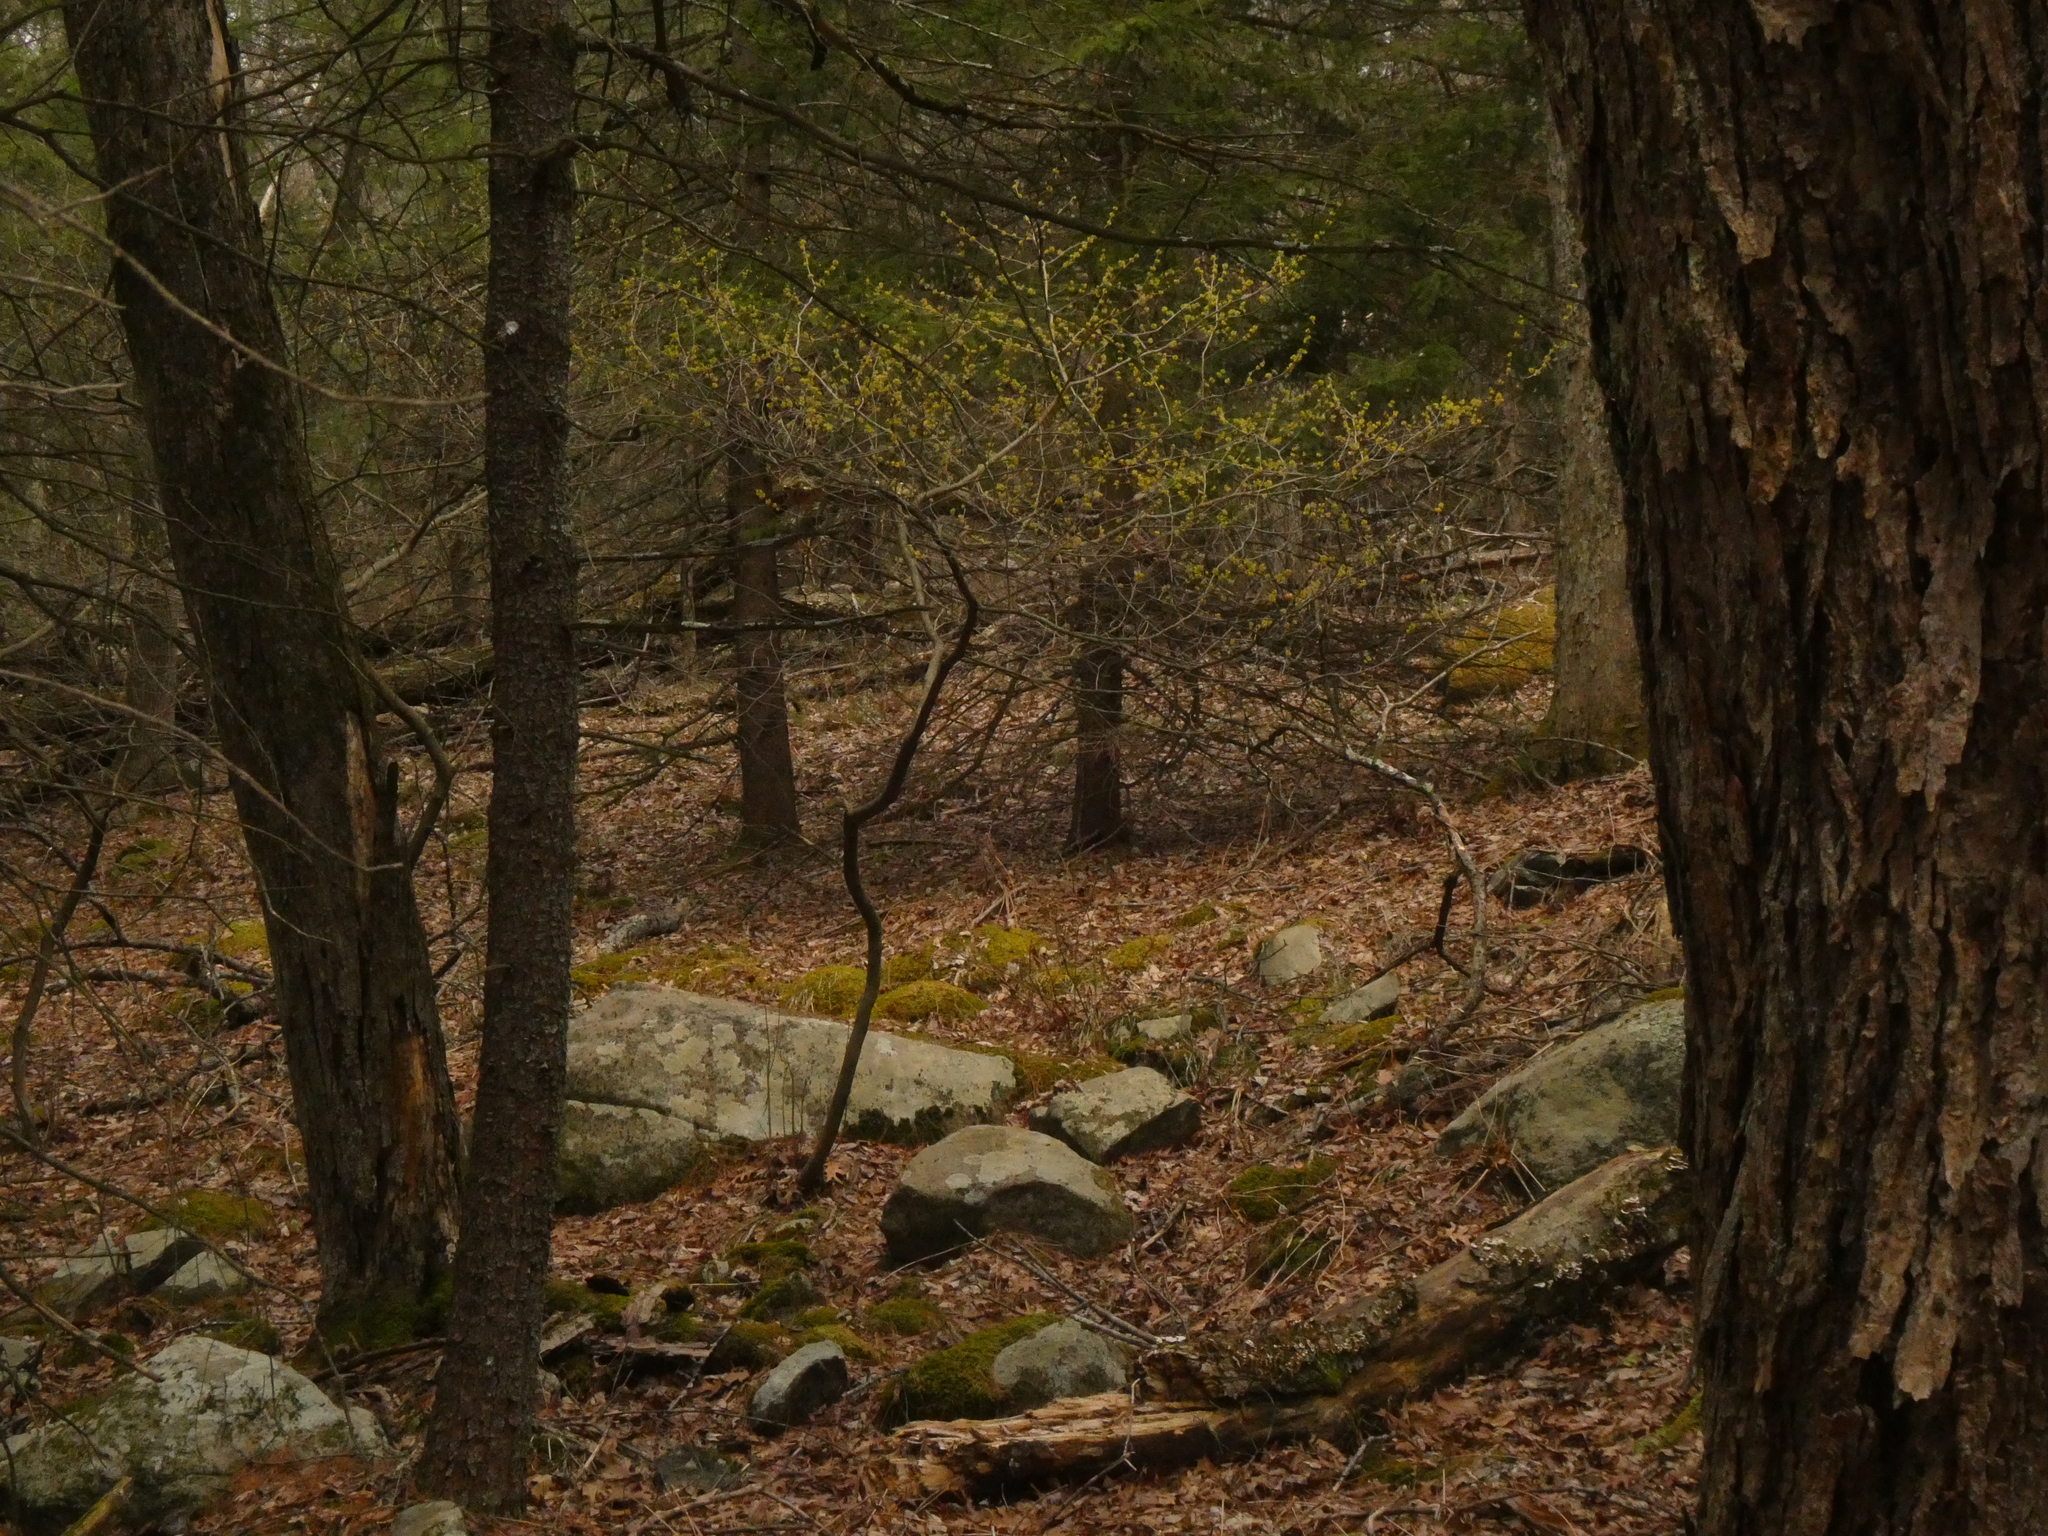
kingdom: Plantae
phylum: Tracheophyta
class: Magnoliopsida
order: Laurales
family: Lauraceae
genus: Lindera
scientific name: Lindera benzoin
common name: Spicebush
